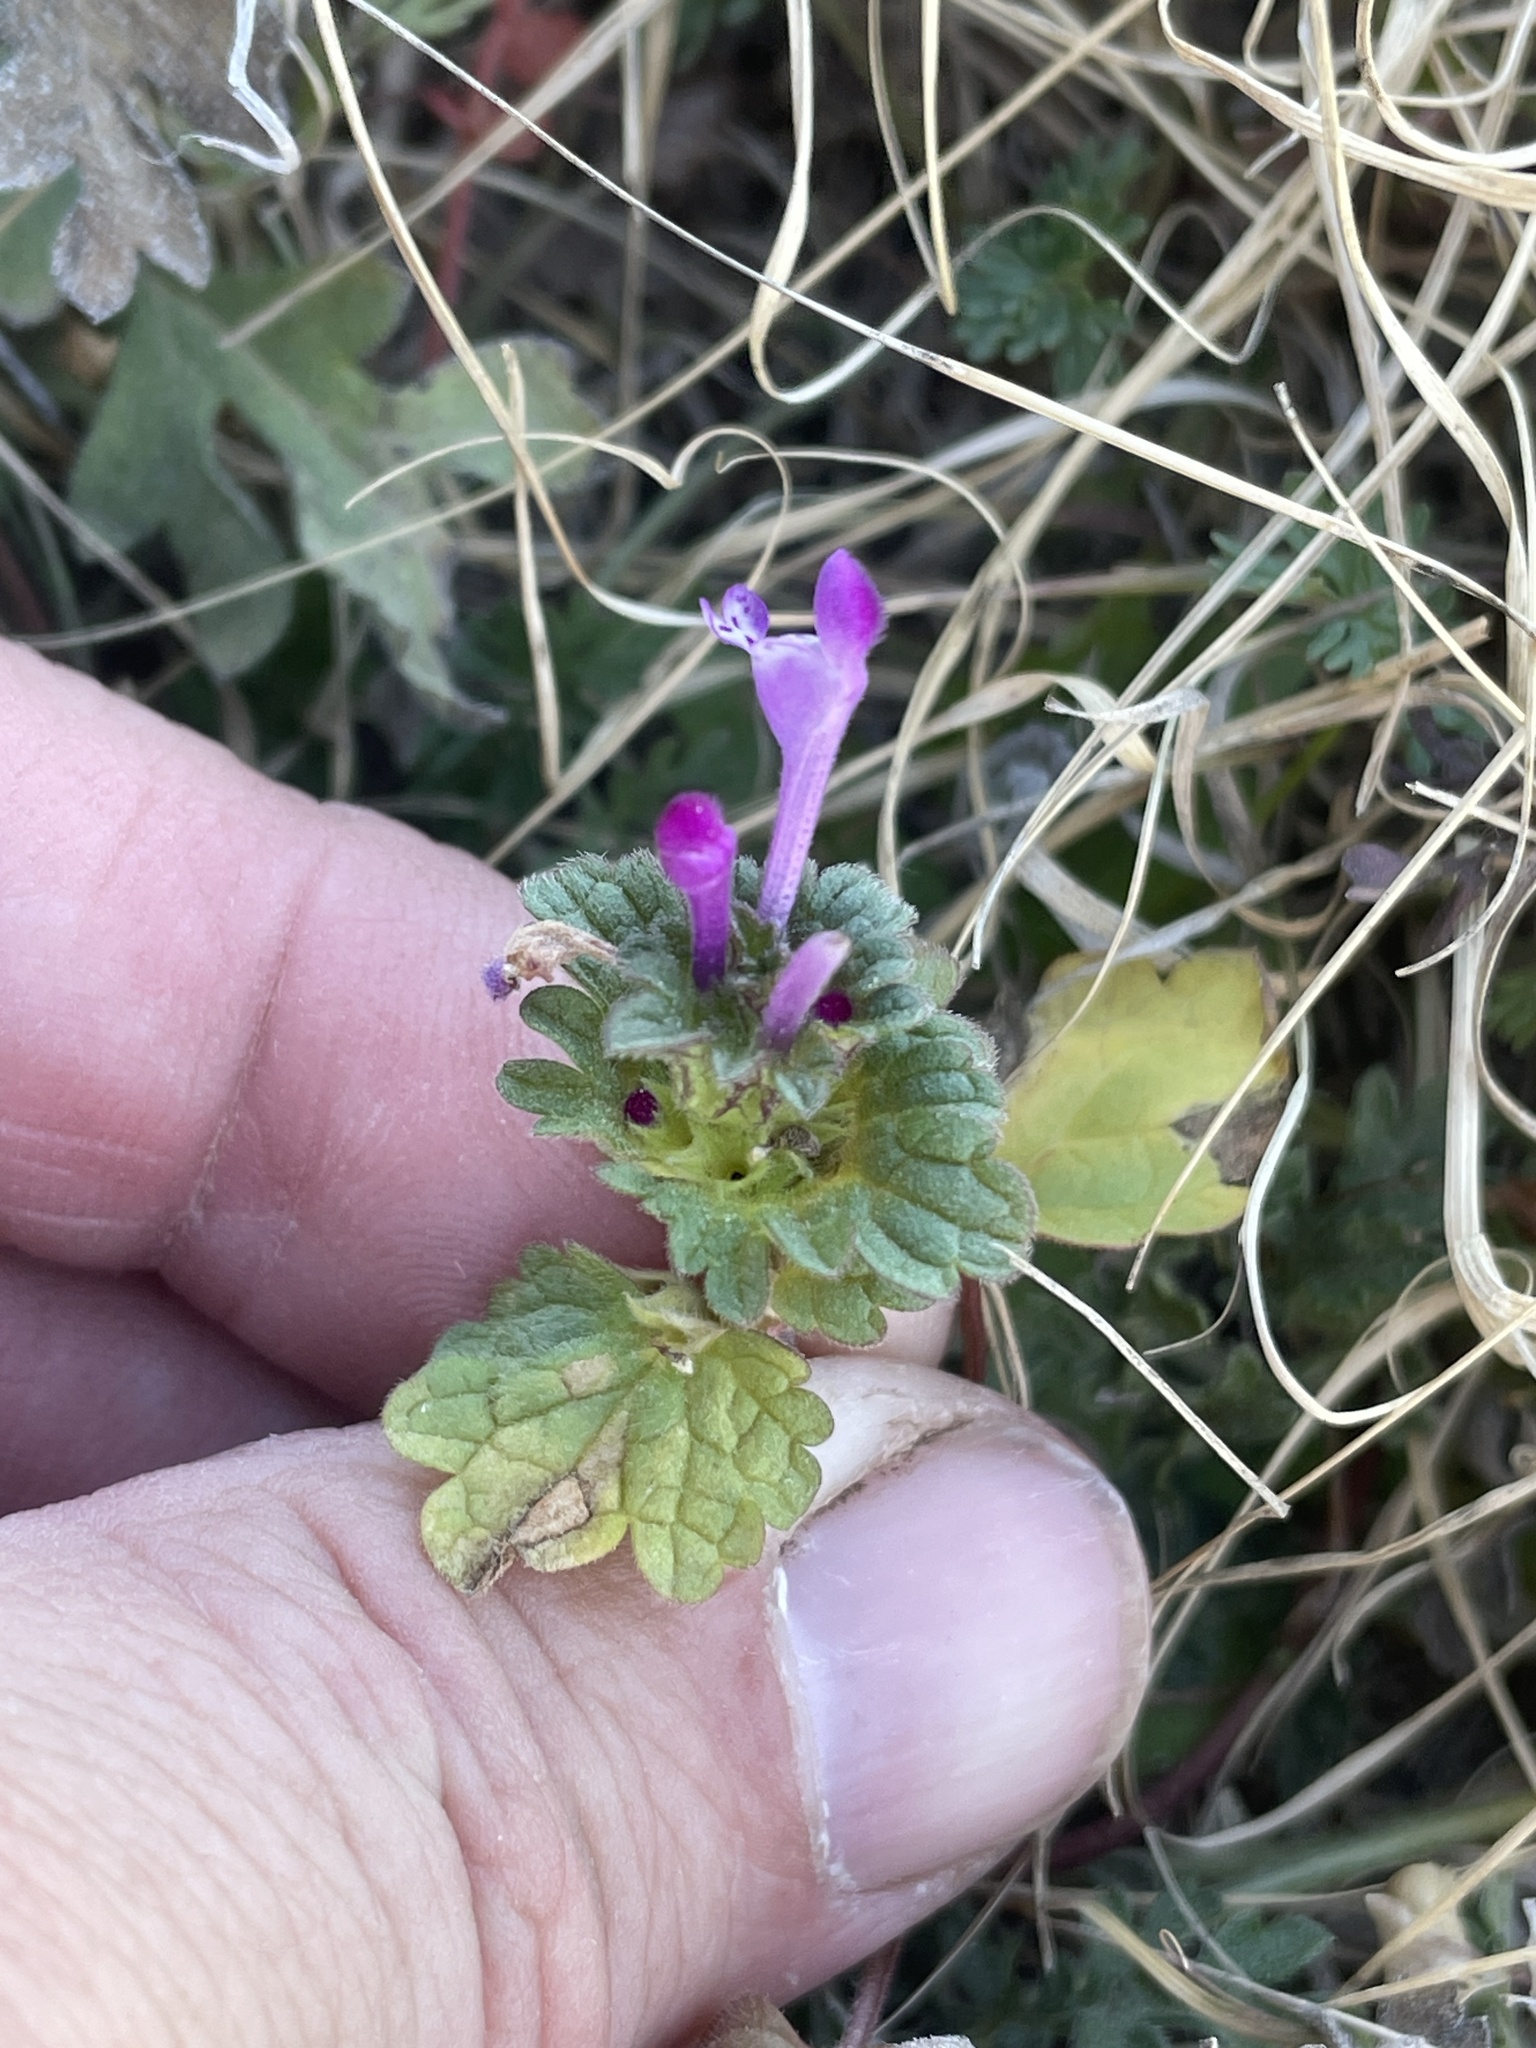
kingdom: Plantae
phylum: Tracheophyta
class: Magnoliopsida
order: Lamiales
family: Lamiaceae
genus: Lamium
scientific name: Lamium amplexicaule
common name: Henbit dead-nettle
